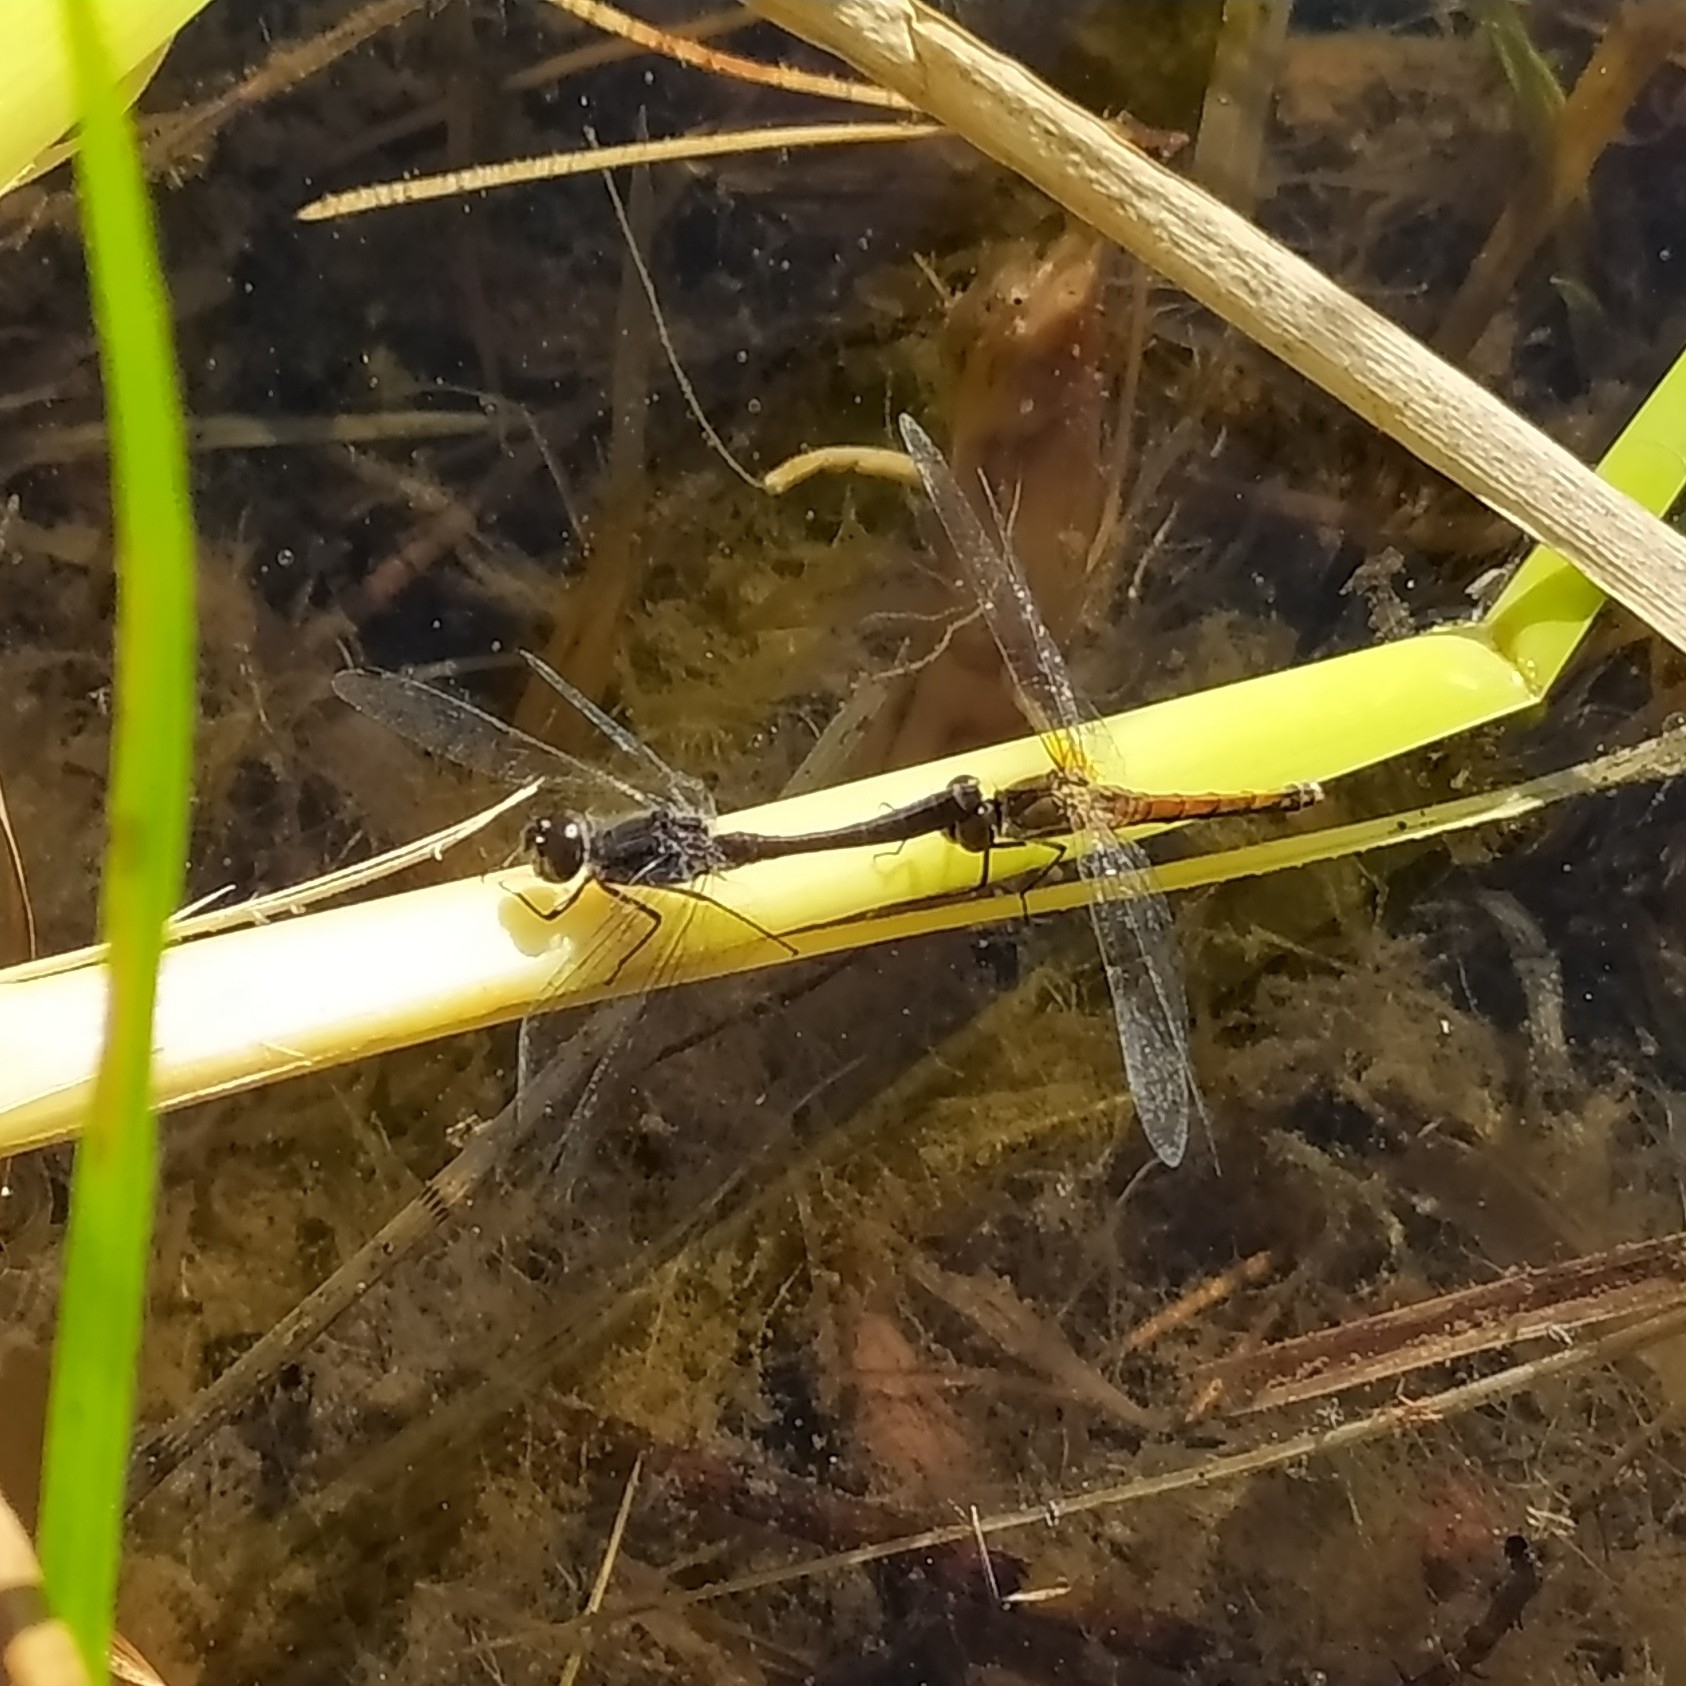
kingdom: Animalia
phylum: Arthropoda
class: Insecta
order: Odonata
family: Libellulidae
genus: Sympetrum
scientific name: Sympetrum danae
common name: Black darter
